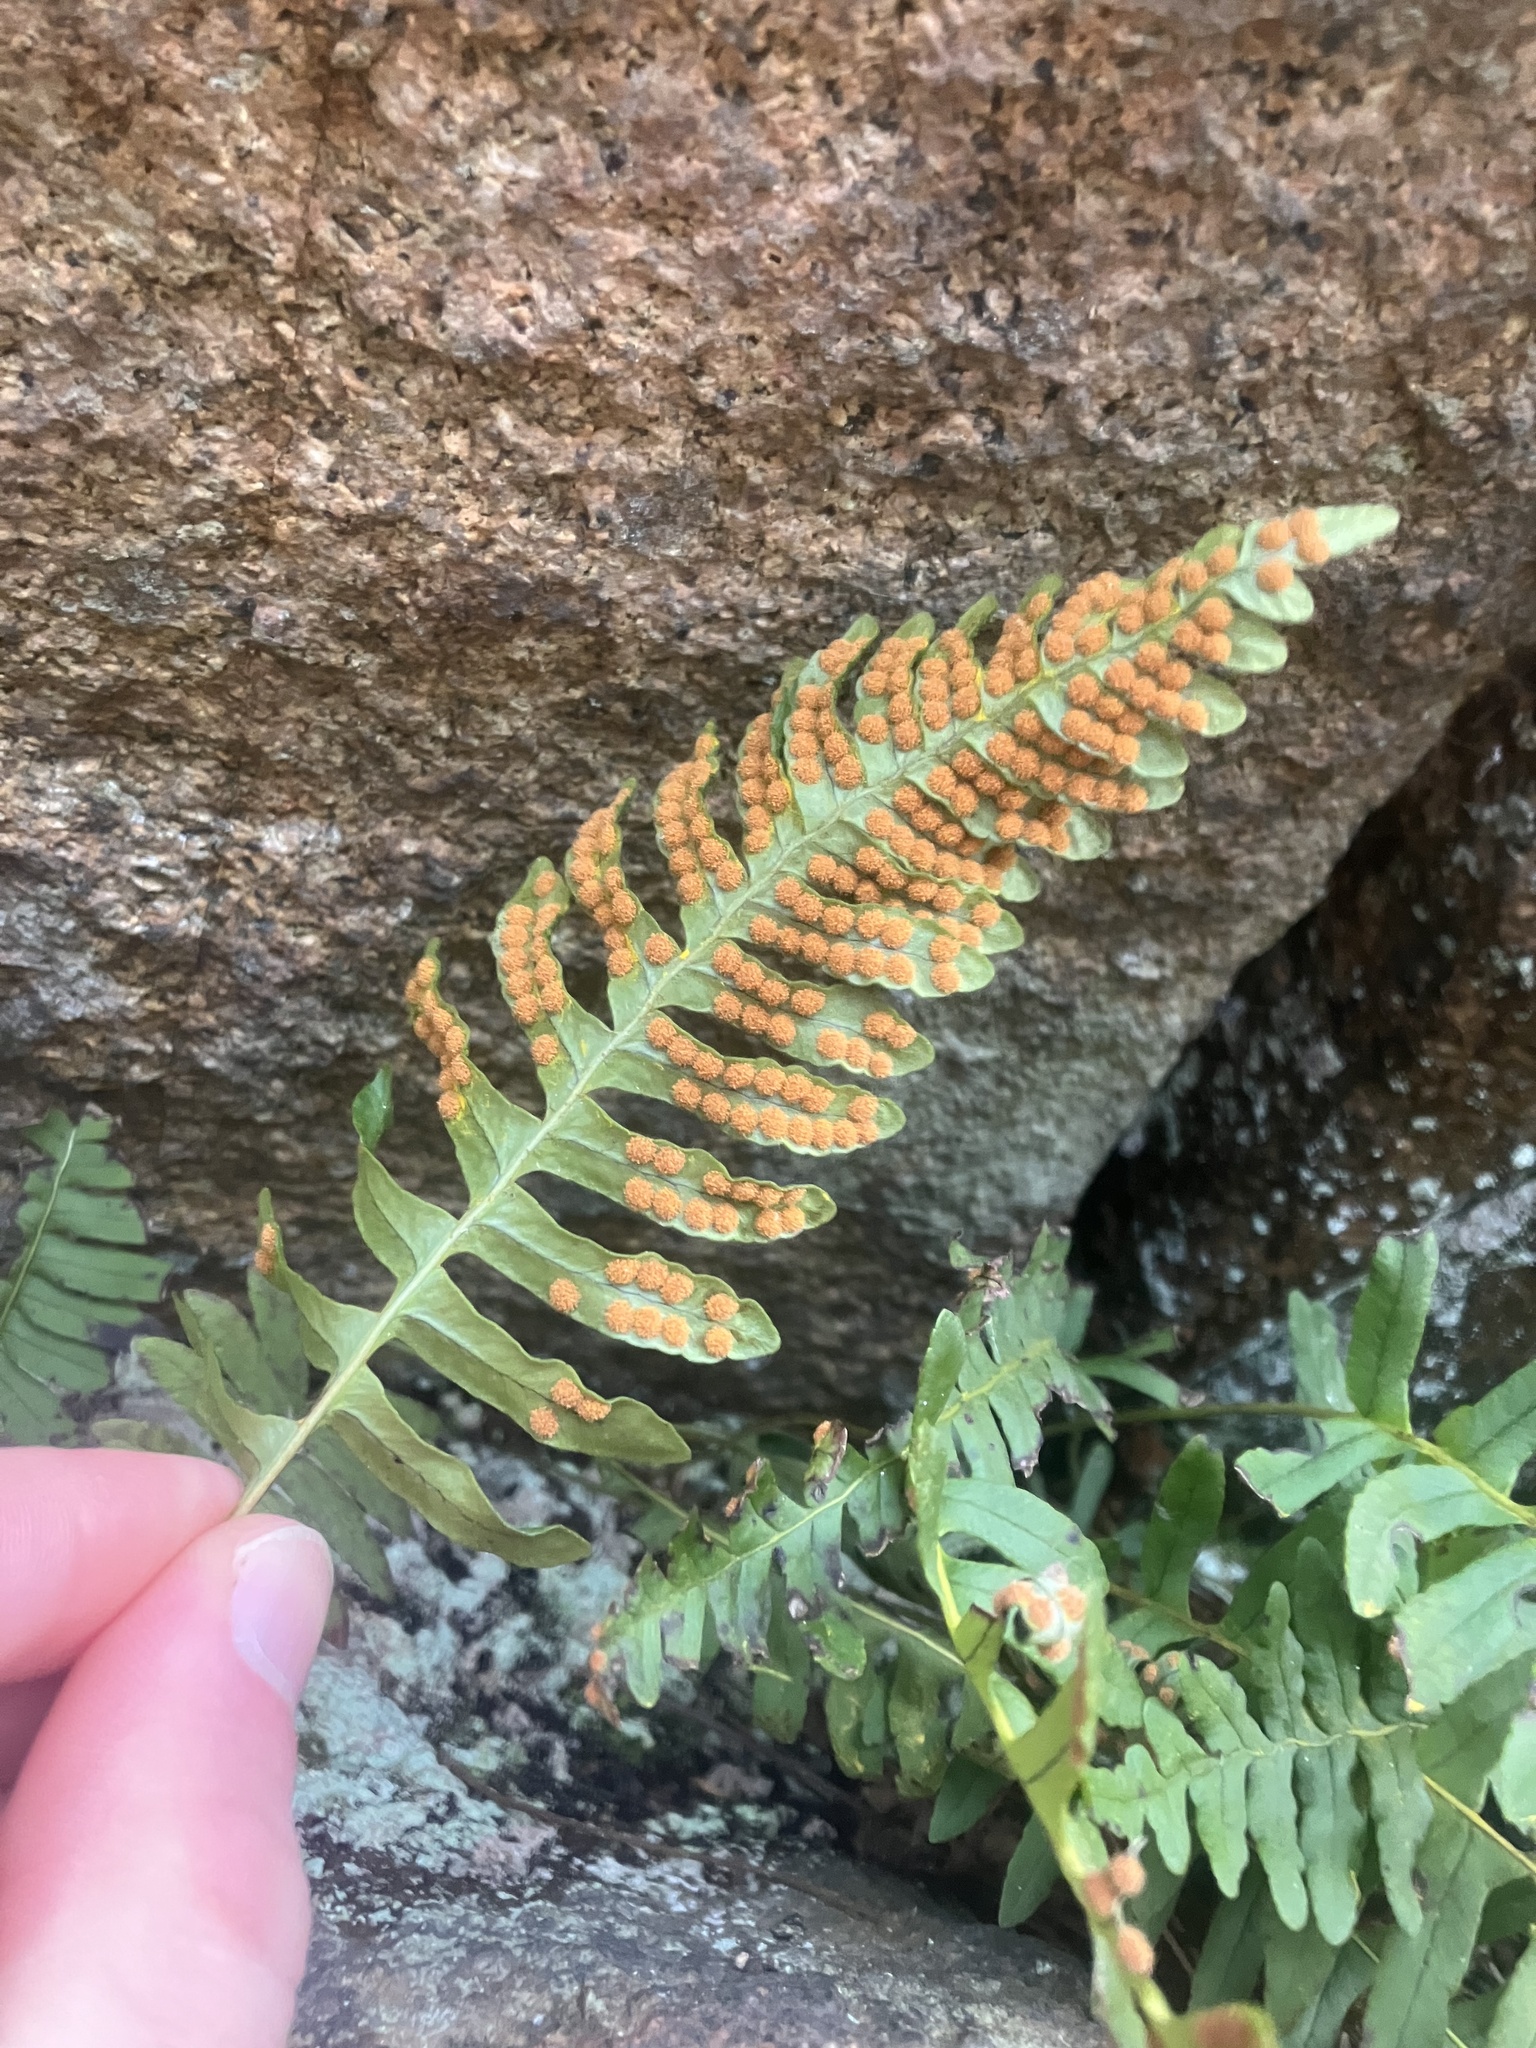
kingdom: Plantae
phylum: Tracheophyta
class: Polypodiopsida
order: Polypodiales
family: Polypodiaceae
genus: Polypodium
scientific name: Polypodium virginianum
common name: American wall fern
